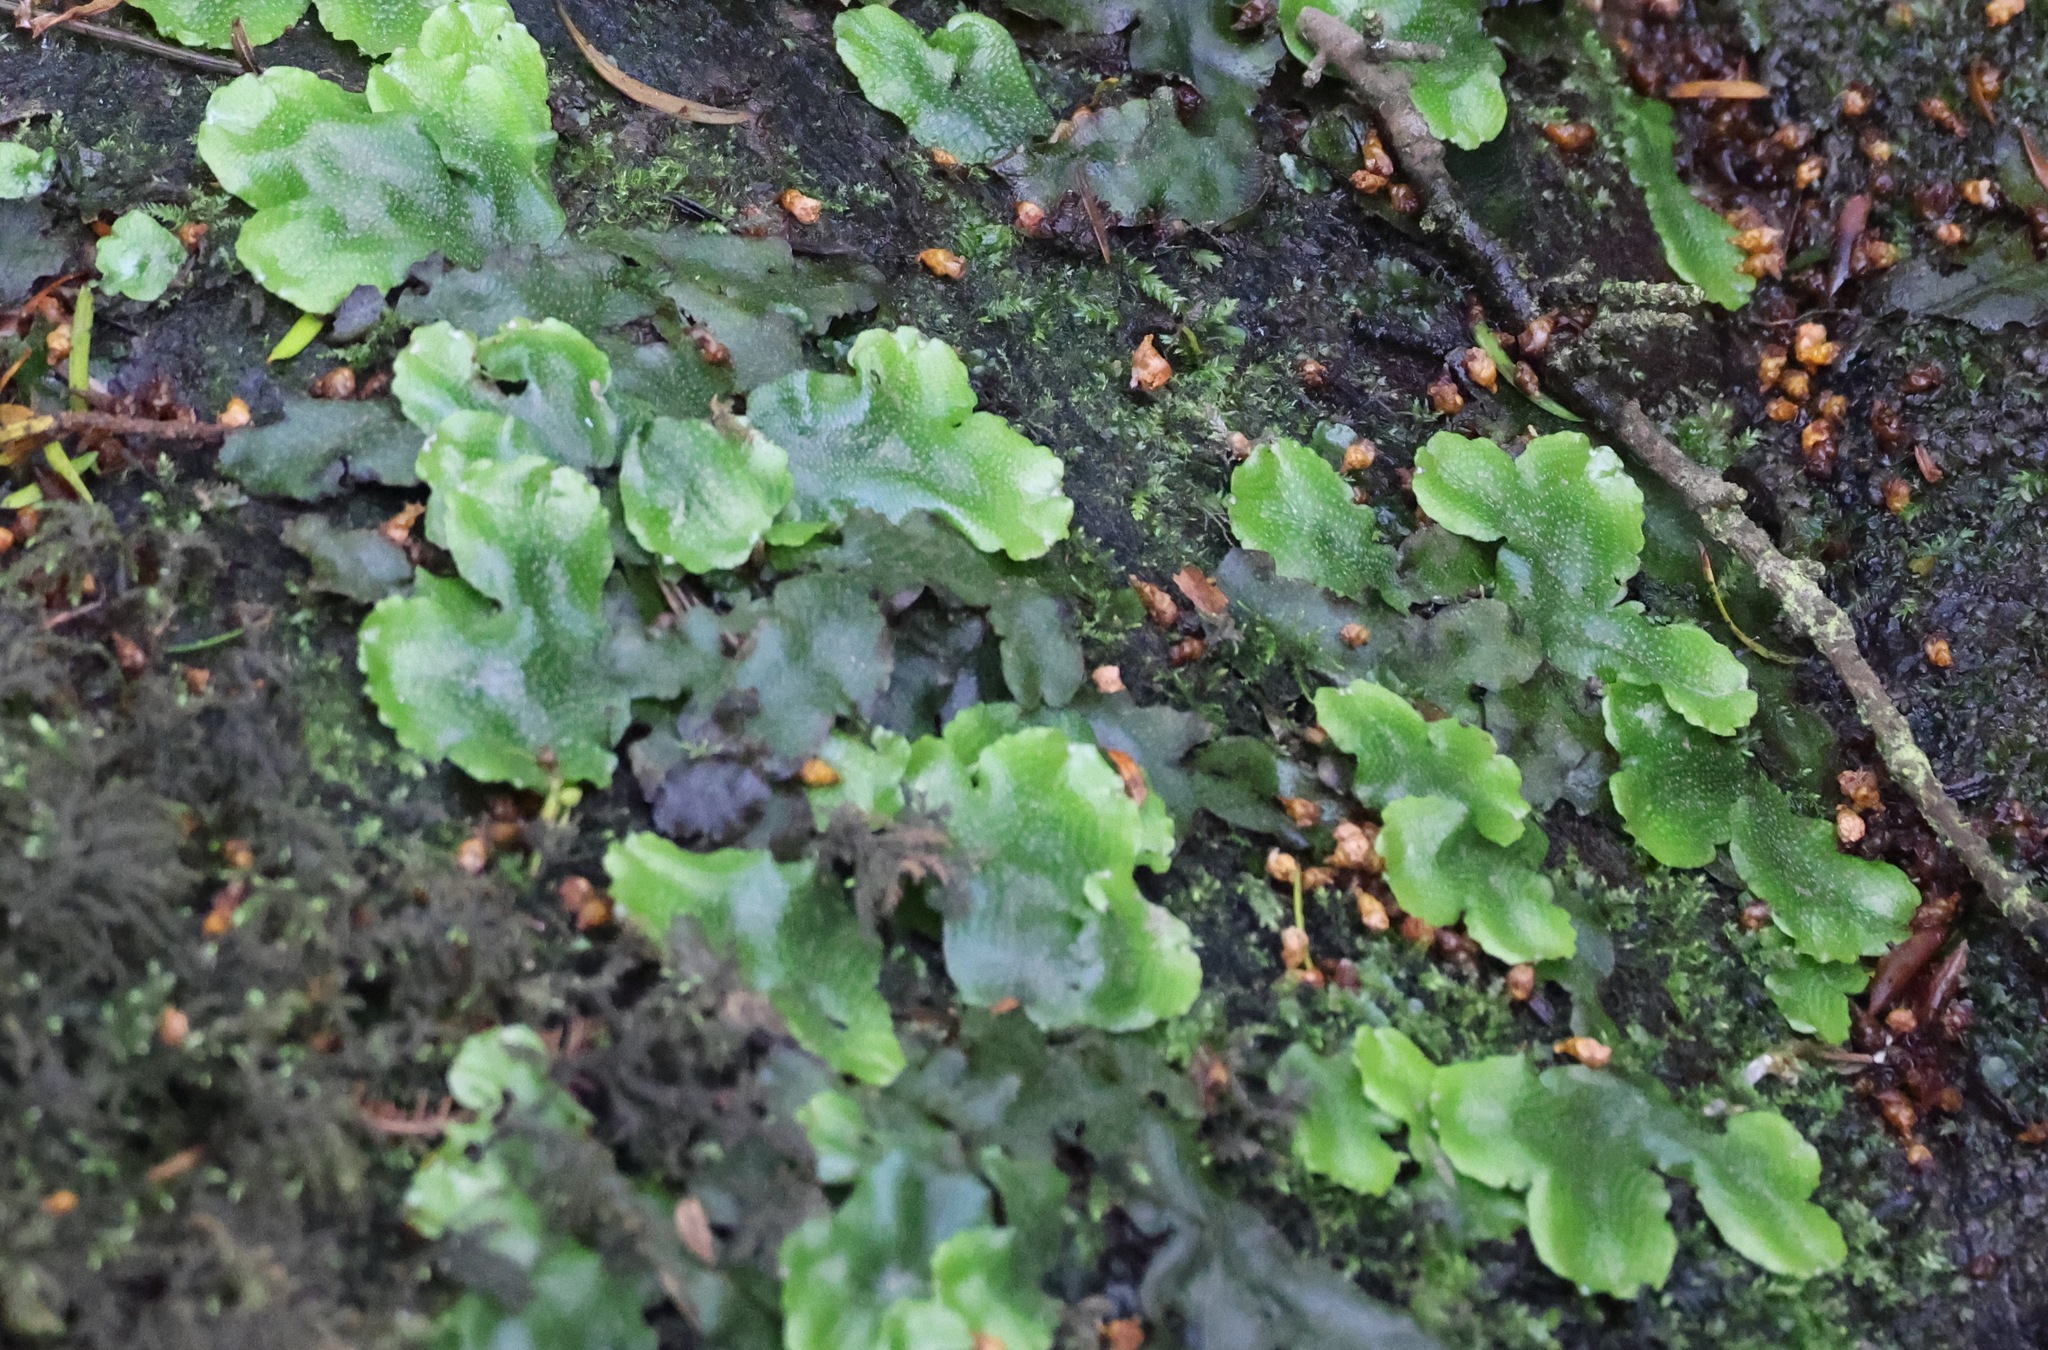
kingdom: Plantae
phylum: Marchantiophyta
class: Marchantiopsida
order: Marchantiales
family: Conocephalaceae
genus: Conocephalum
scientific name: Conocephalum conicum
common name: Great scented liverwort
